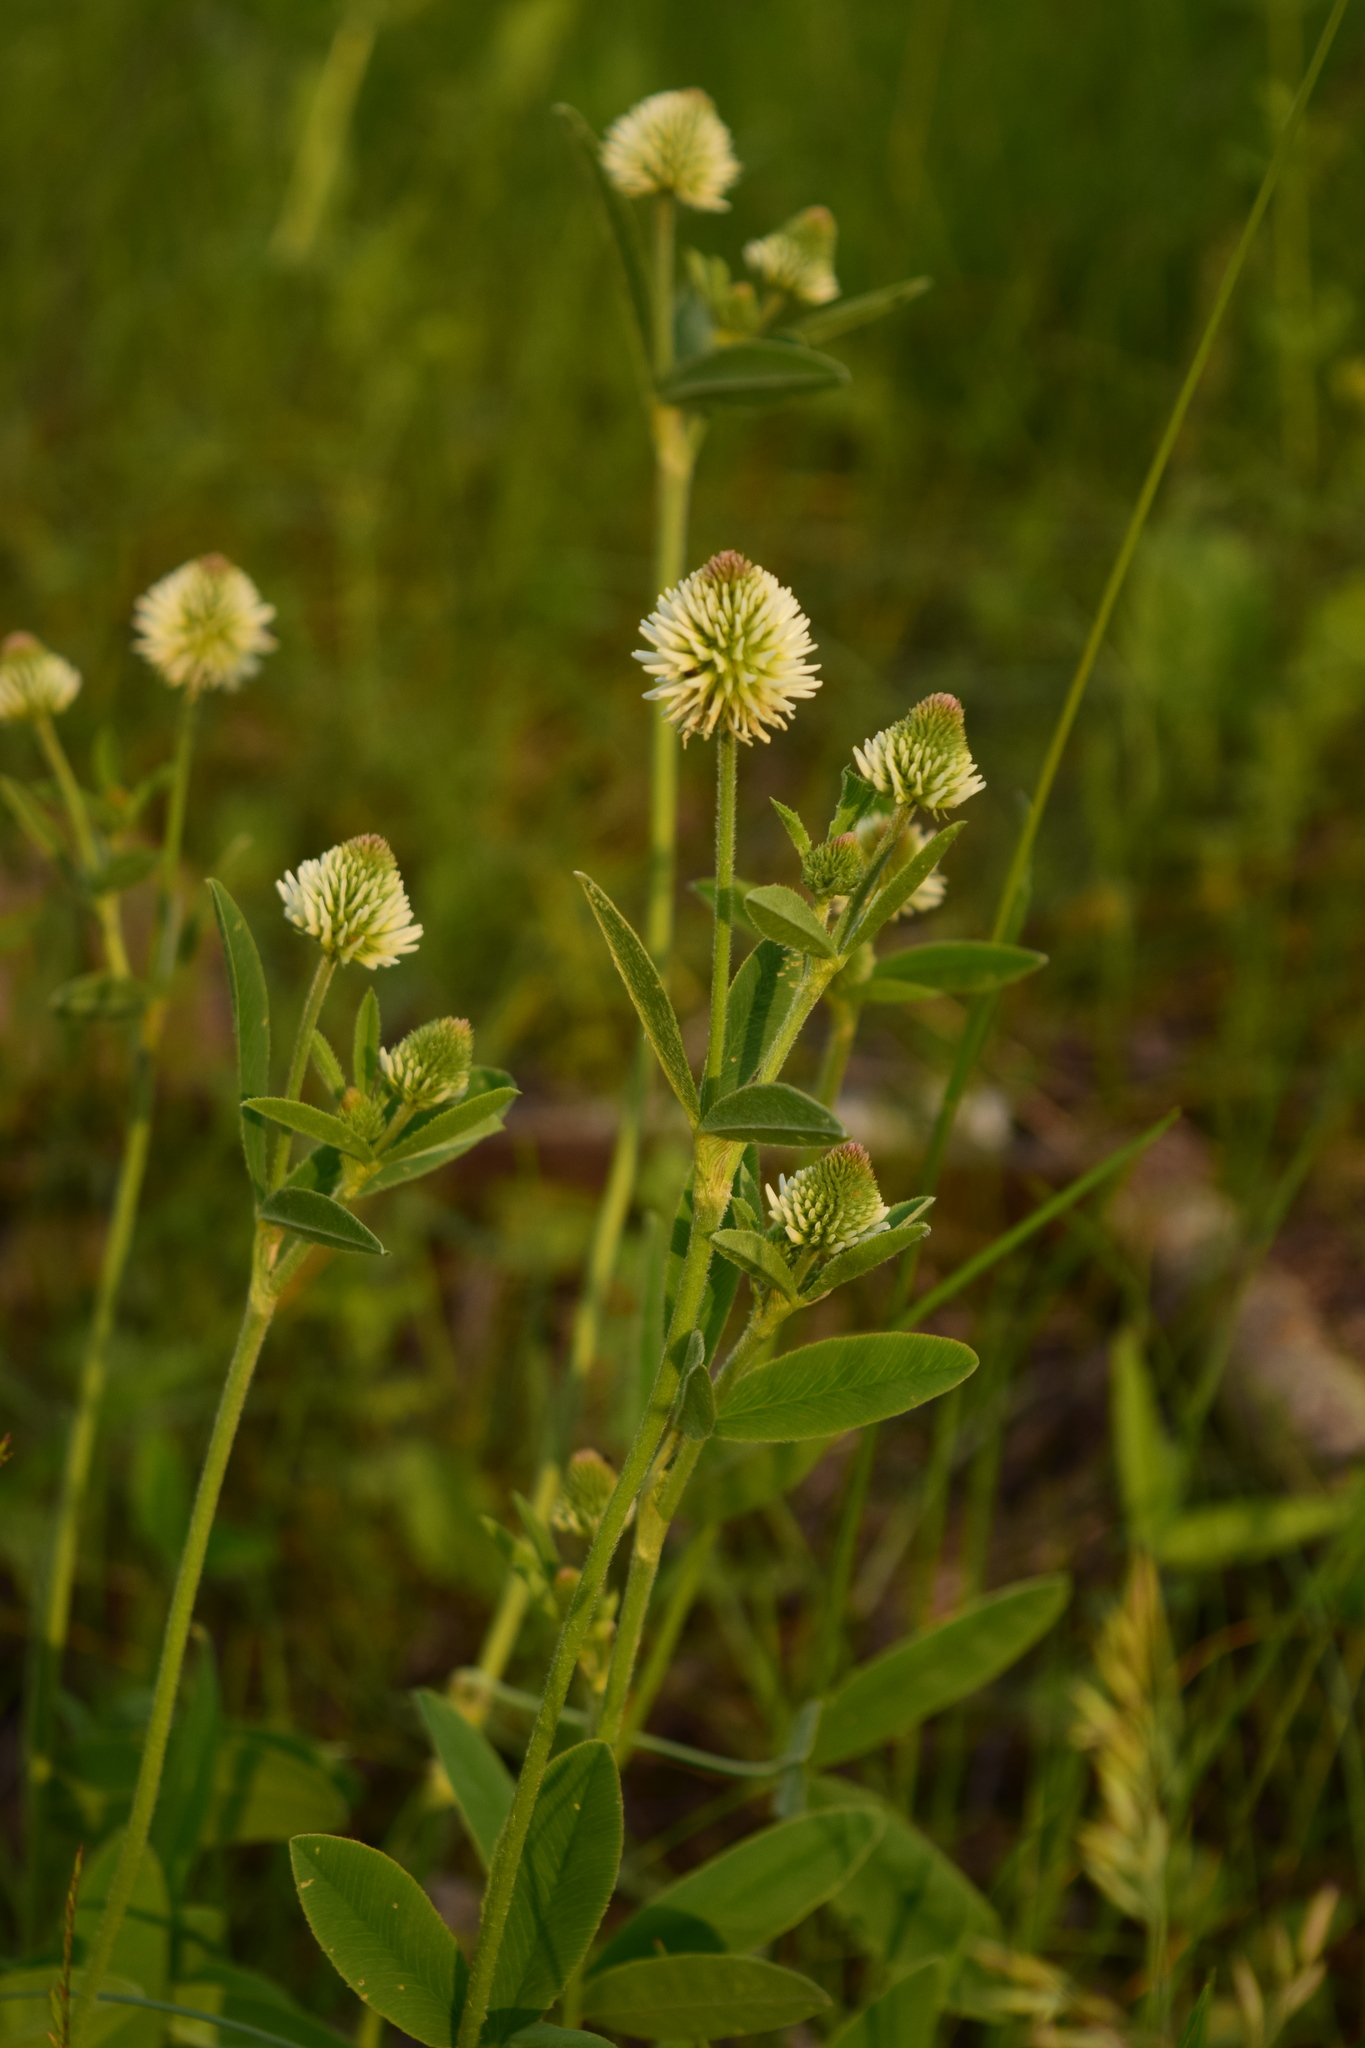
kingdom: Plantae
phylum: Tracheophyta
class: Magnoliopsida
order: Fabales
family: Fabaceae
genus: Trifolium
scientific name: Trifolium montanum
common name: Mountain clover
